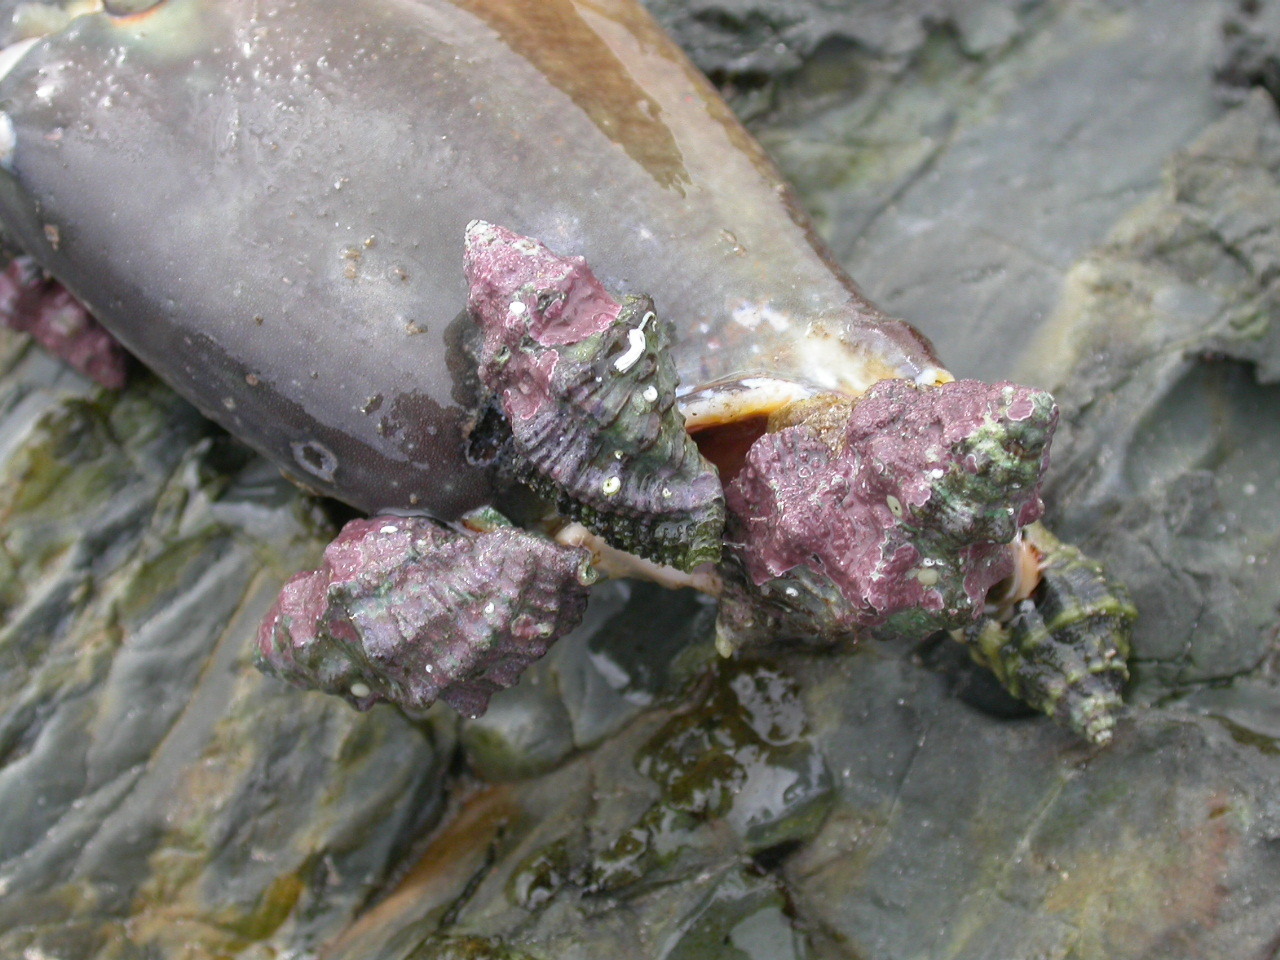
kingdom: Animalia
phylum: Mollusca
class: Gastropoda
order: Neogastropoda
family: Muricidae
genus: Drupella
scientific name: Drupella margariticola
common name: Shouldered castor bean
